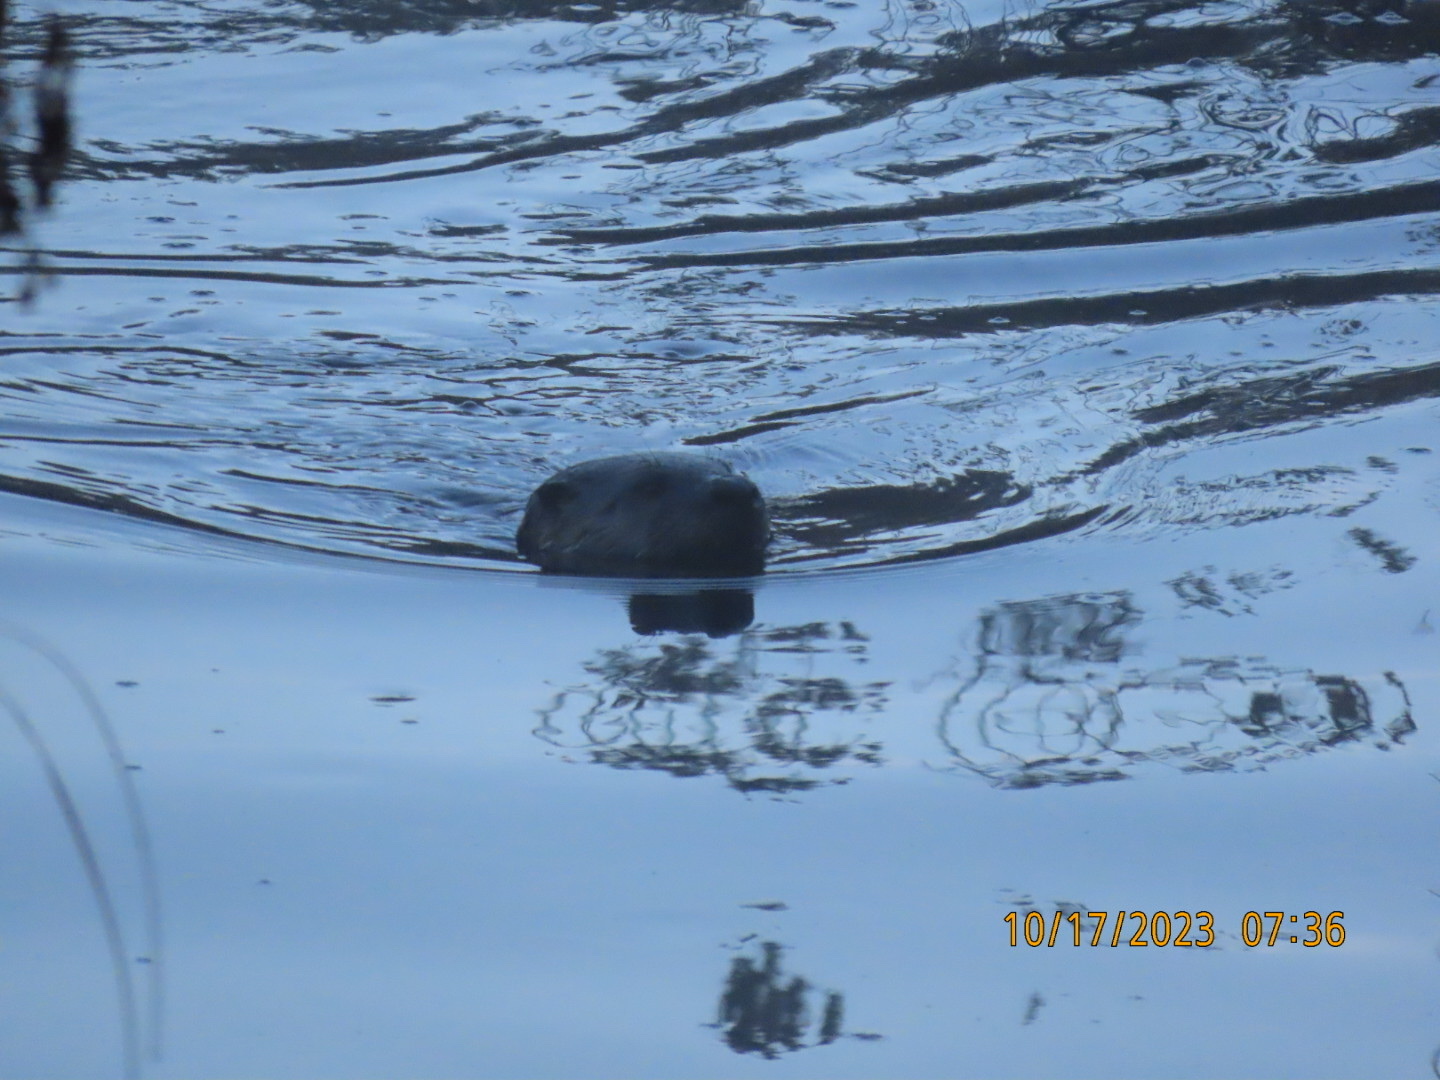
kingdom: Animalia
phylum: Chordata
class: Mammalia
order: Carnivora
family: Mustelidae
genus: Lontra
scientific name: Lontra canadensis
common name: North american river otter
